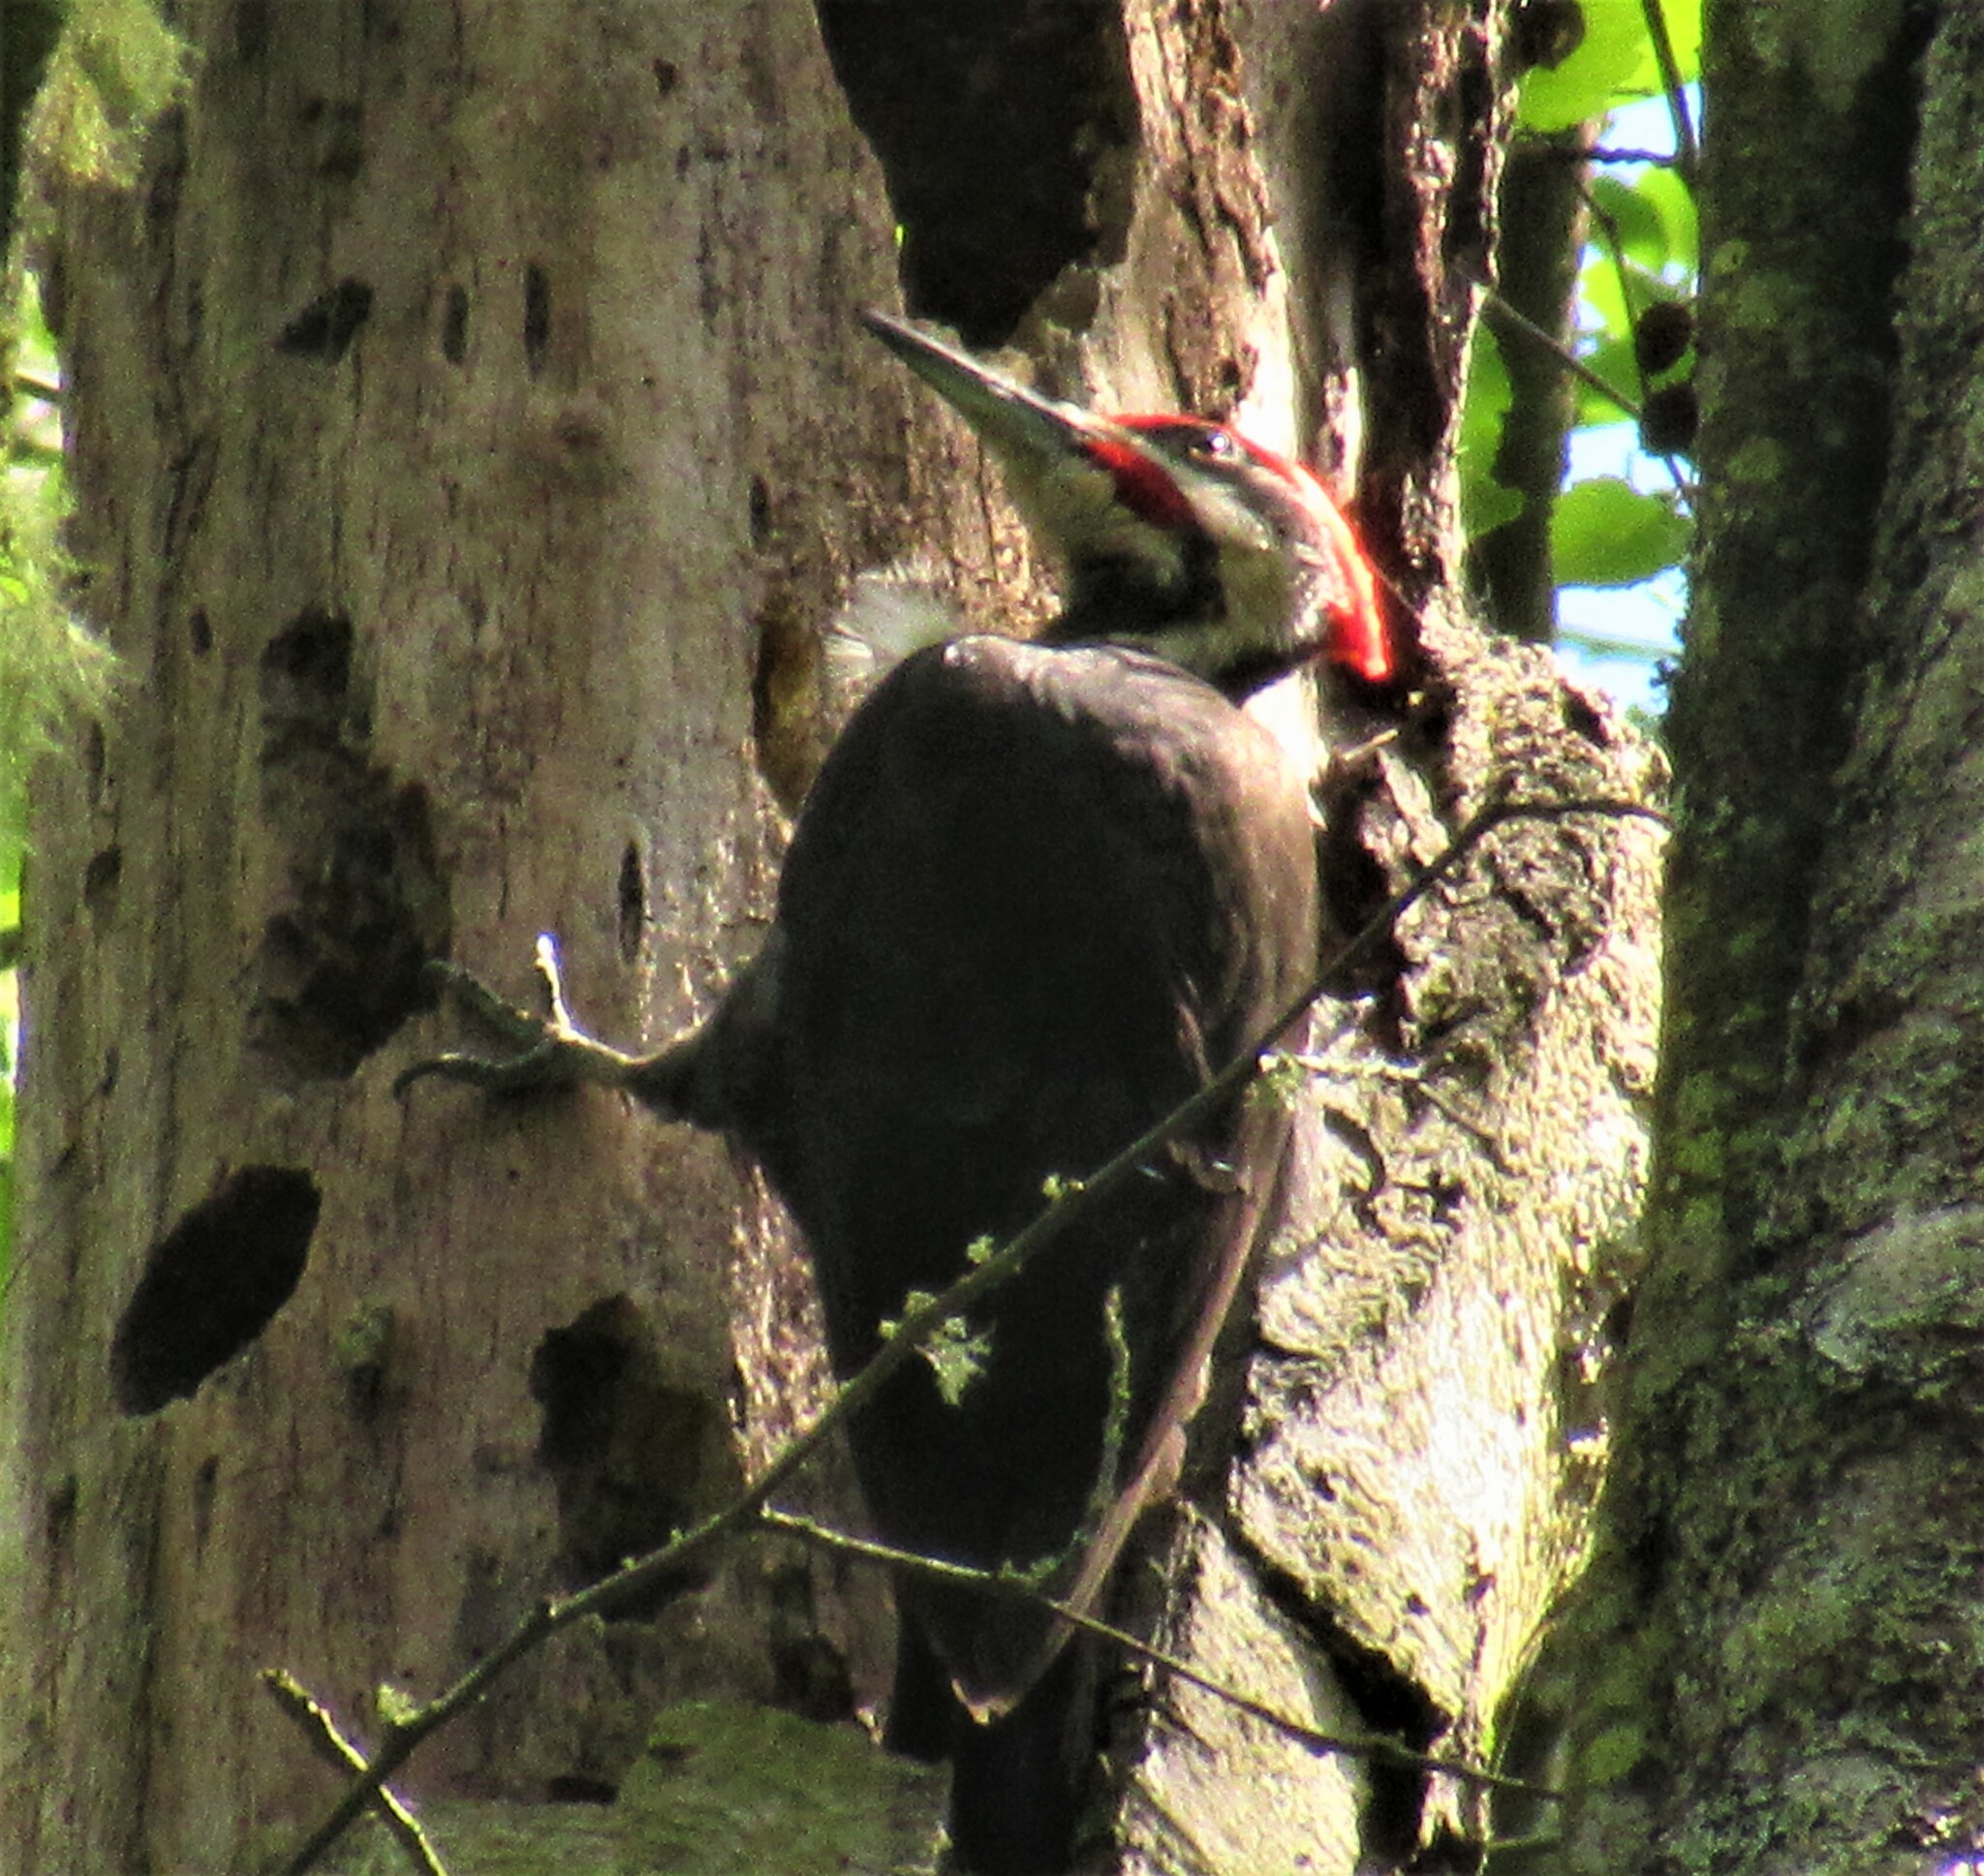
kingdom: Animalia
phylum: Chordata
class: Aves
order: Piciformes
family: Picidae
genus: Dryocopus
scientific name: Dryocopus pileatus
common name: Pileated woodpecker
